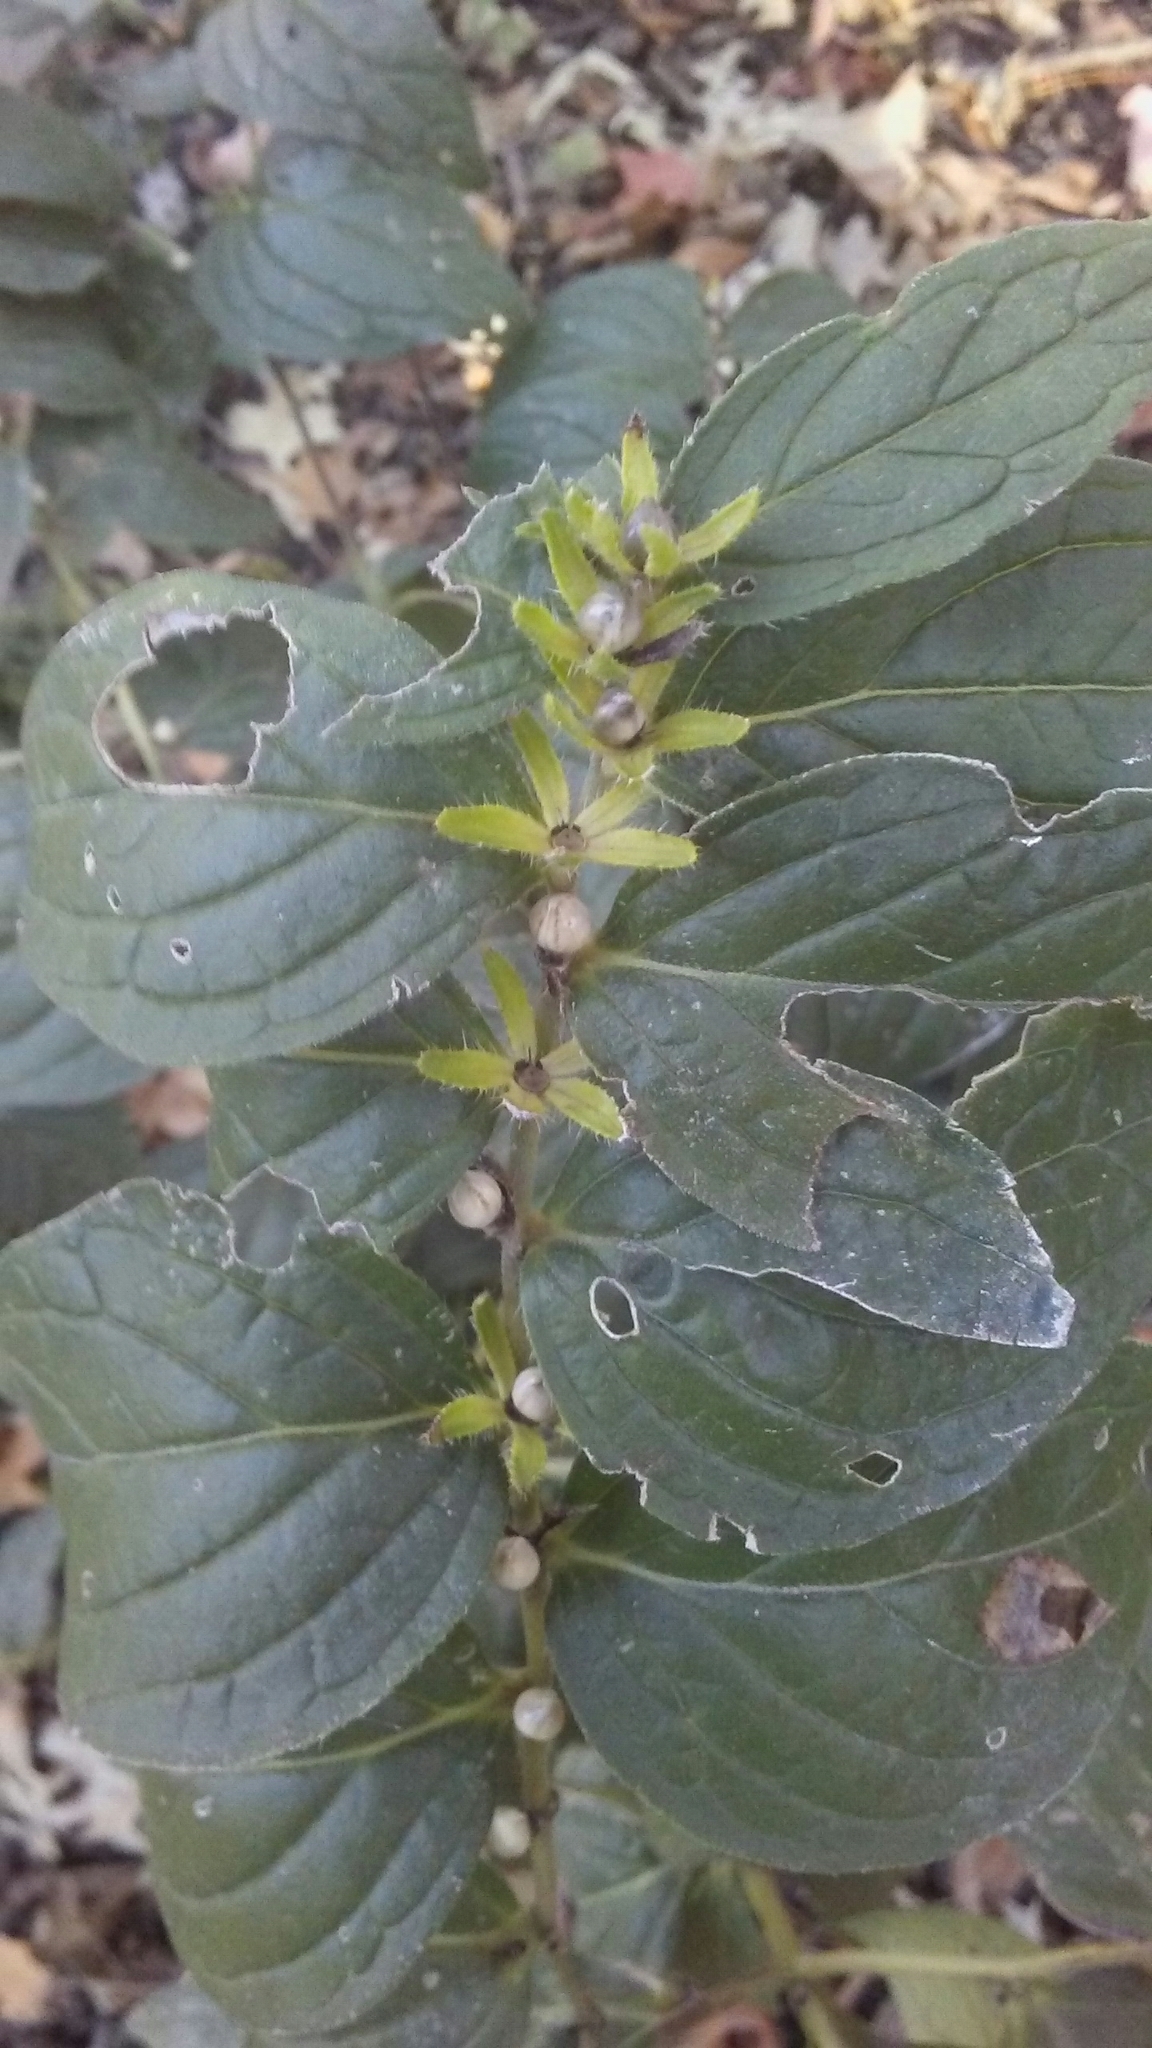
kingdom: Plantae
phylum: Tracheophyta
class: Magnoliopsida
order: Boraginales
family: Boraginaceae
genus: Lithospermum
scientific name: Lithospermum latifolium
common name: American gromwell
